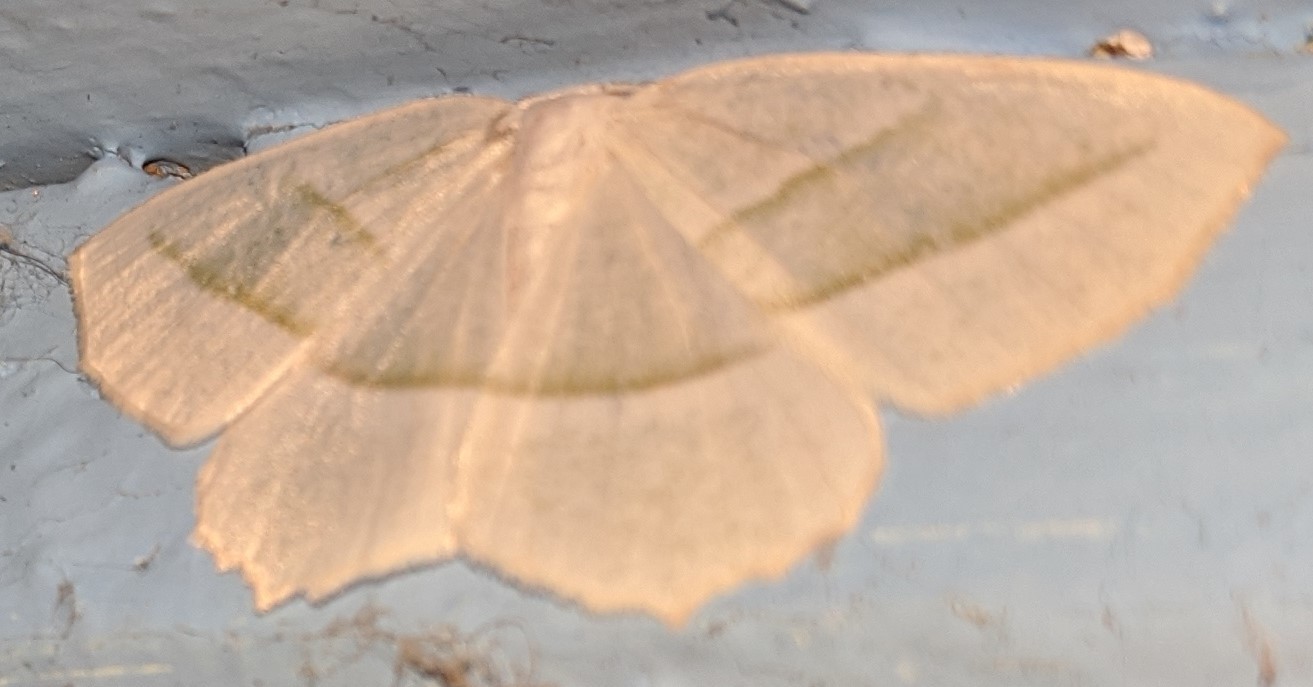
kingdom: Animalia
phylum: Arthropoda
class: Insecta
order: Lepidoptera
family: Geometridae
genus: Campaea
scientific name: Campaea perlata
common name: Fringed looper
